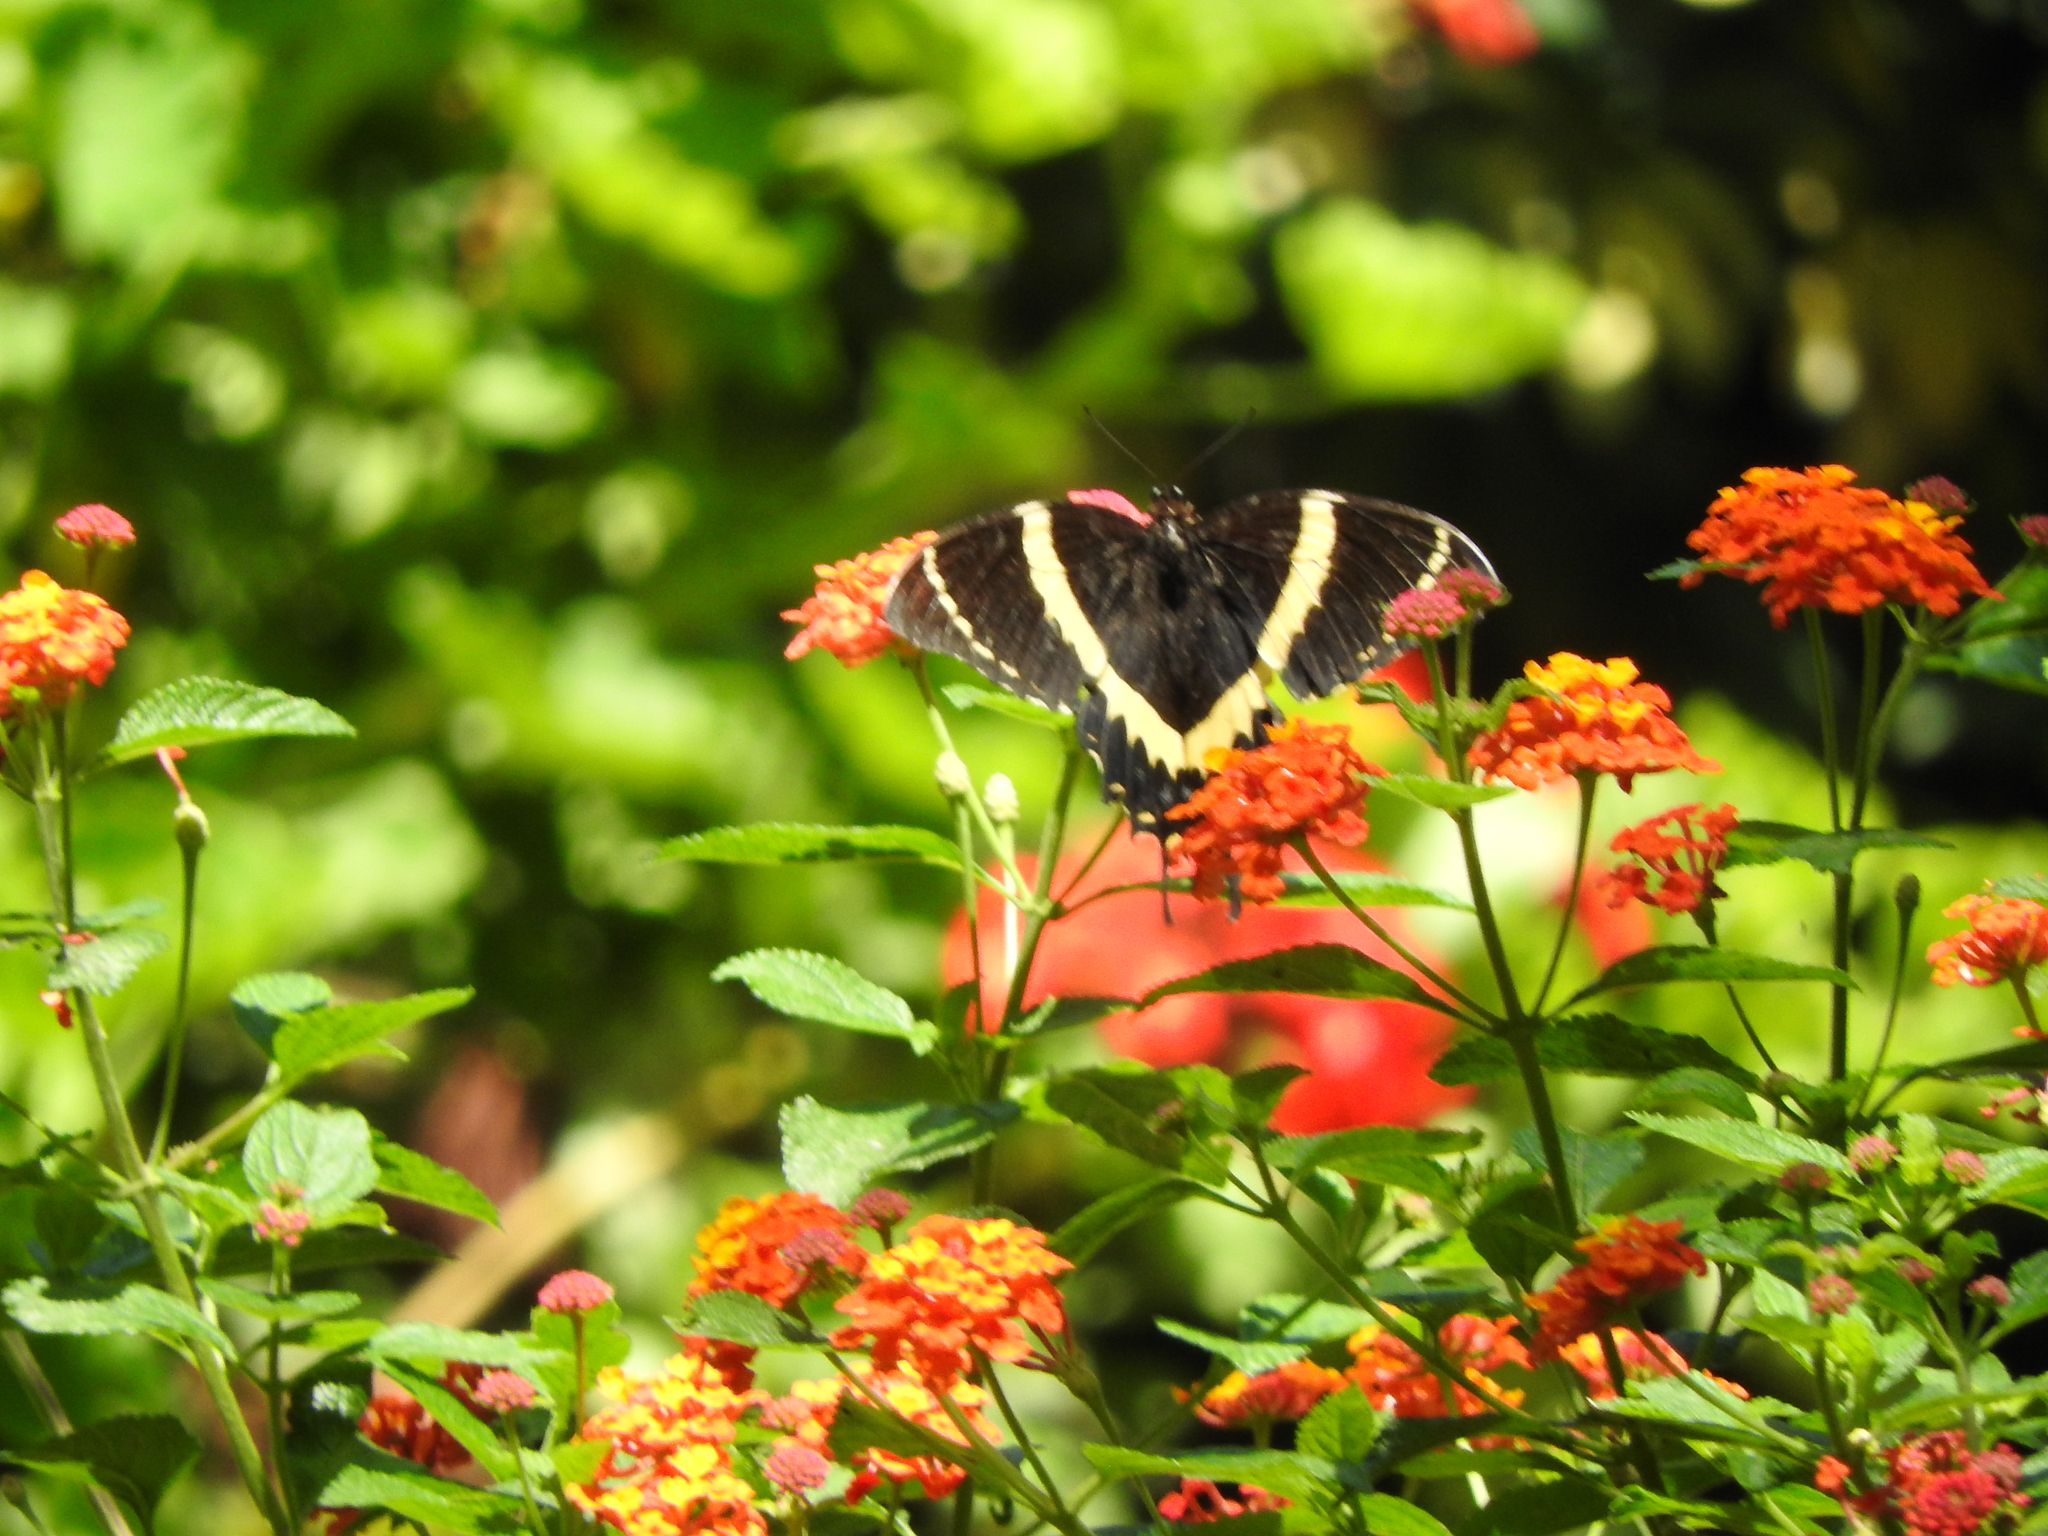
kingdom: Animalia
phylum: Arthropoda
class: Insecta
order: Lepidoptera
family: Papilionidae
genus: Papilio
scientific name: Papilio garamas
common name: Magnificent swallowtail
